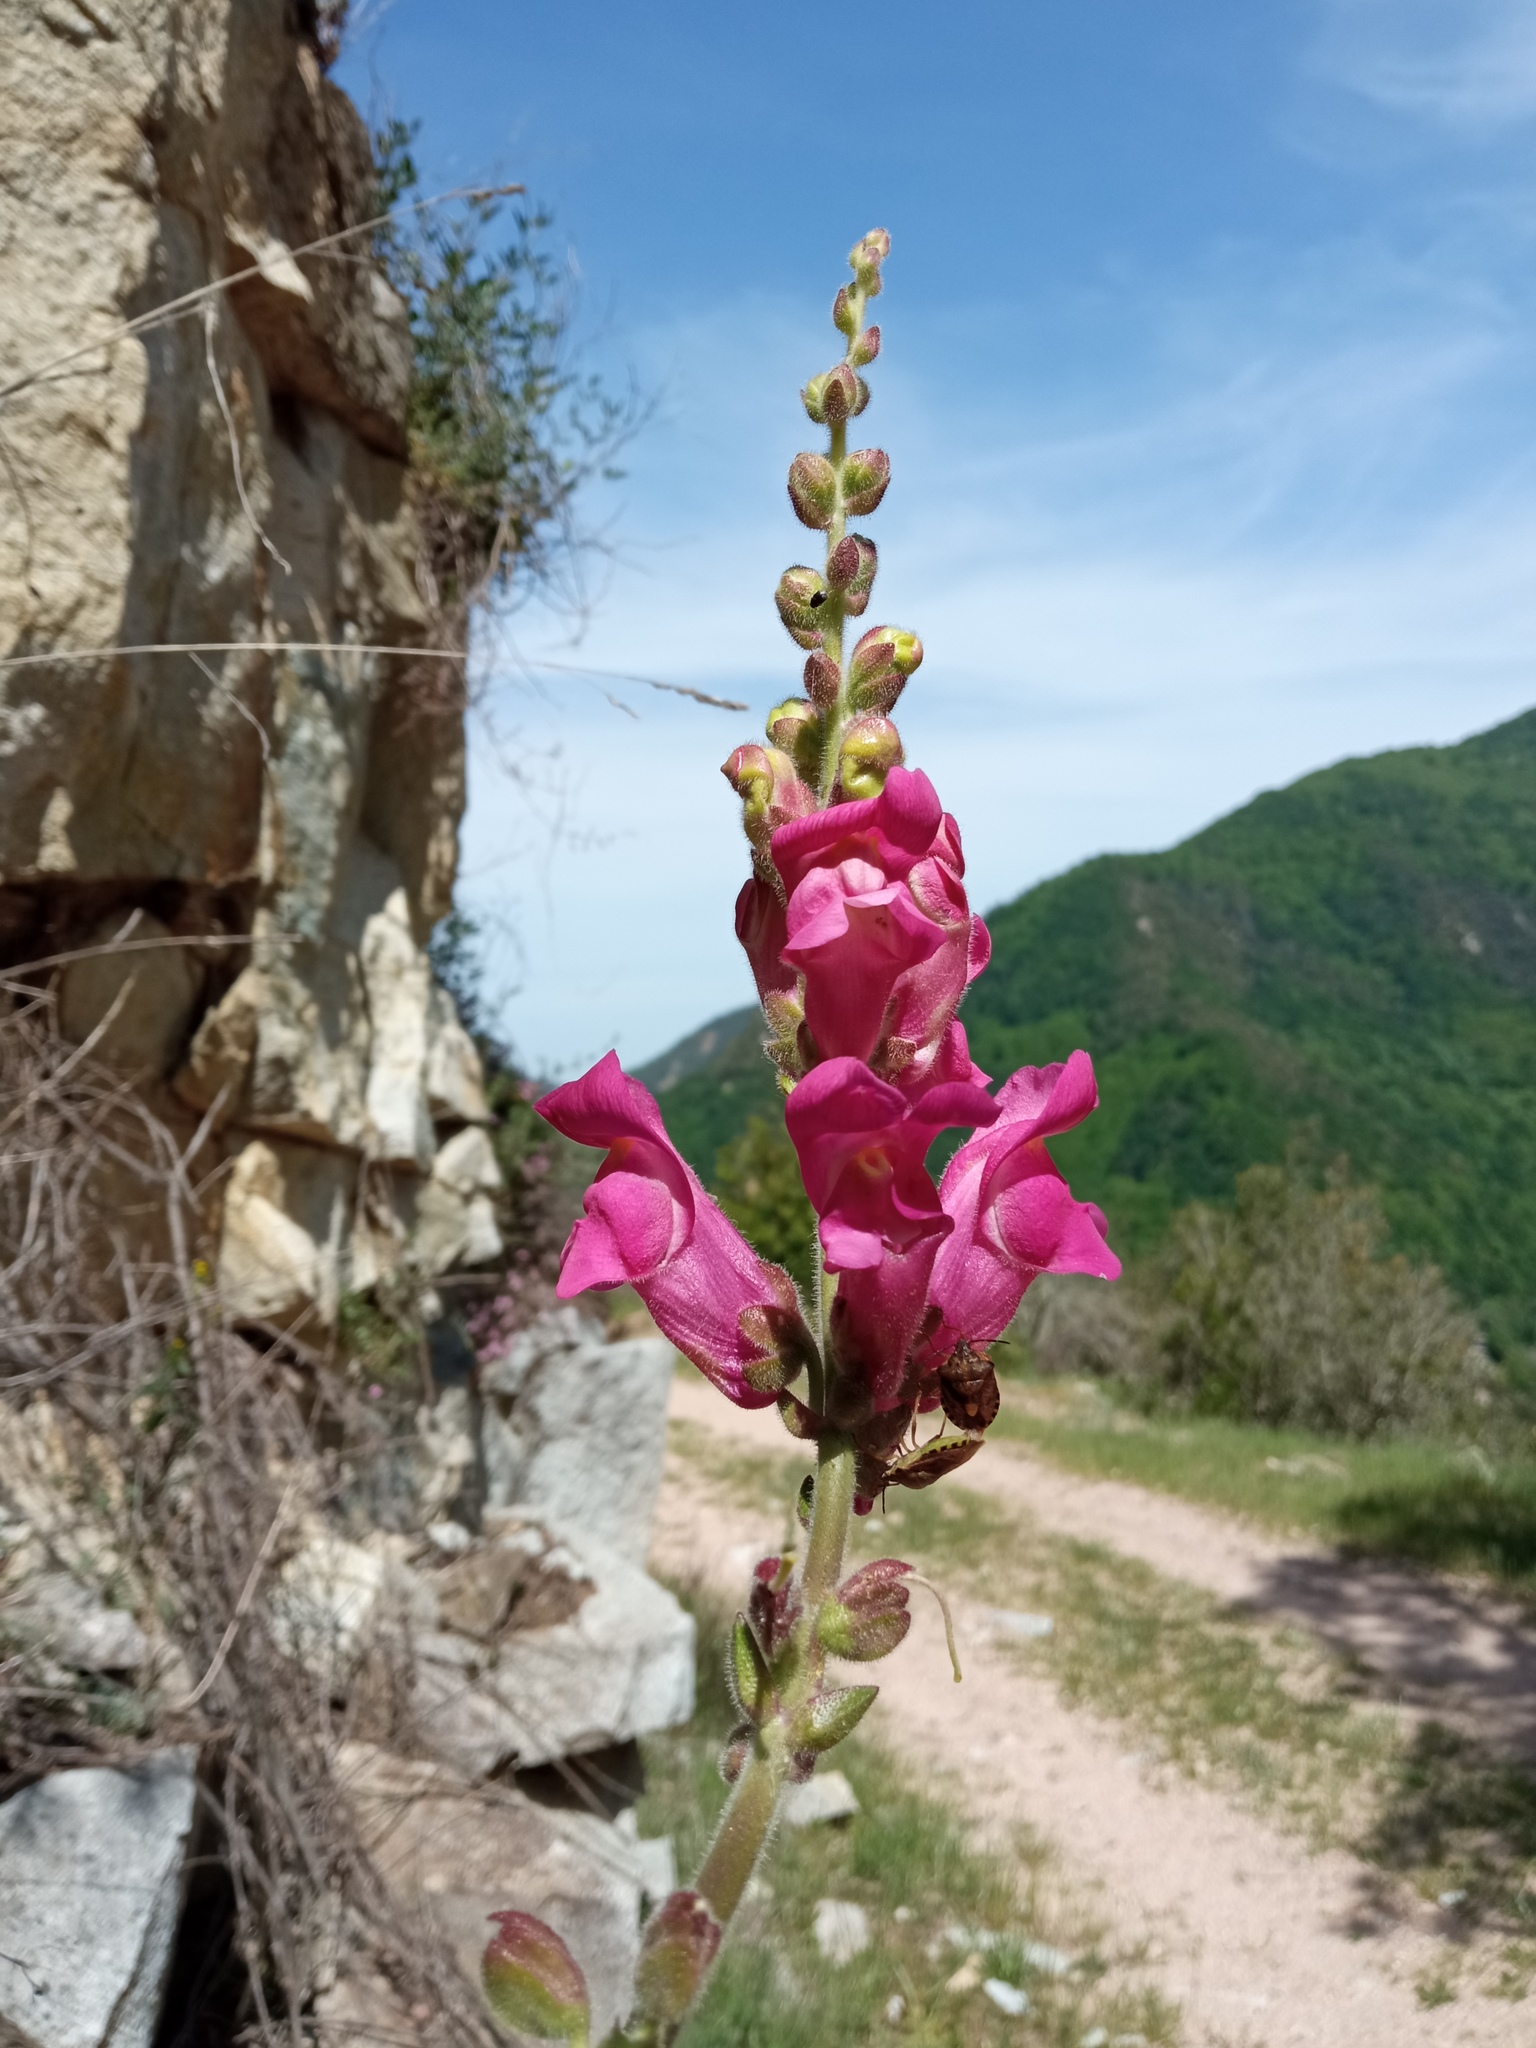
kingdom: Plantae
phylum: Tracheophyta
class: Magnoliopsida
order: Lamiales
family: Plantaginaceae
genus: Antirrhinum
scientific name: Antirrhinum majus
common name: Snapdragon
